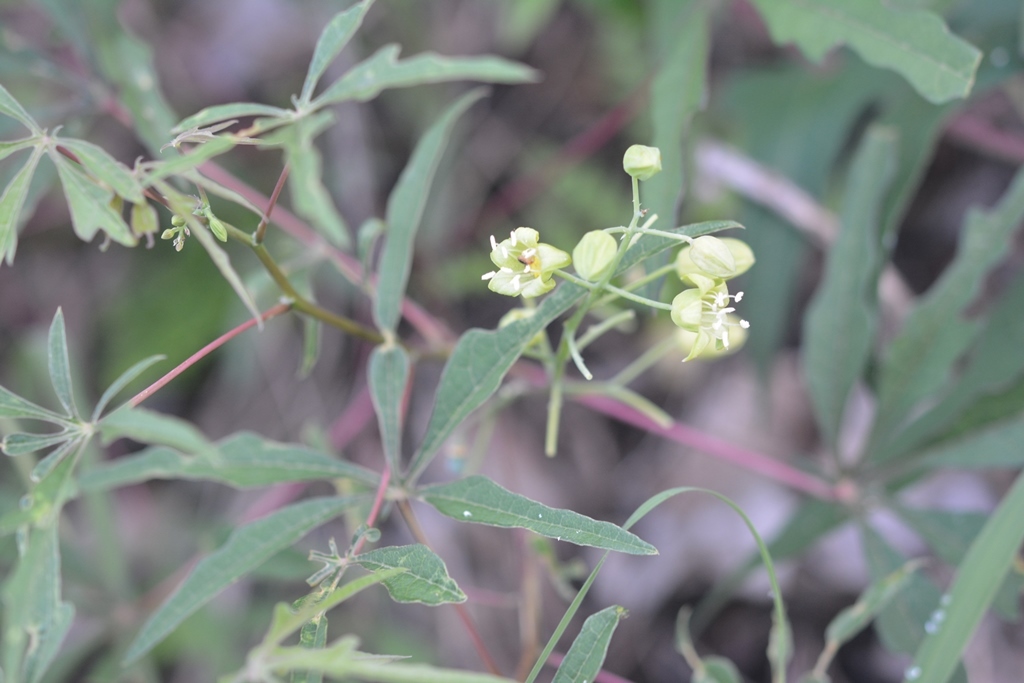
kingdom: Plantae
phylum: Tracheophyta
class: Magnoliopsida
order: Malpighiales
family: Euphorbiaceae
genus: Manihot
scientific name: Manihot rhomboidea
